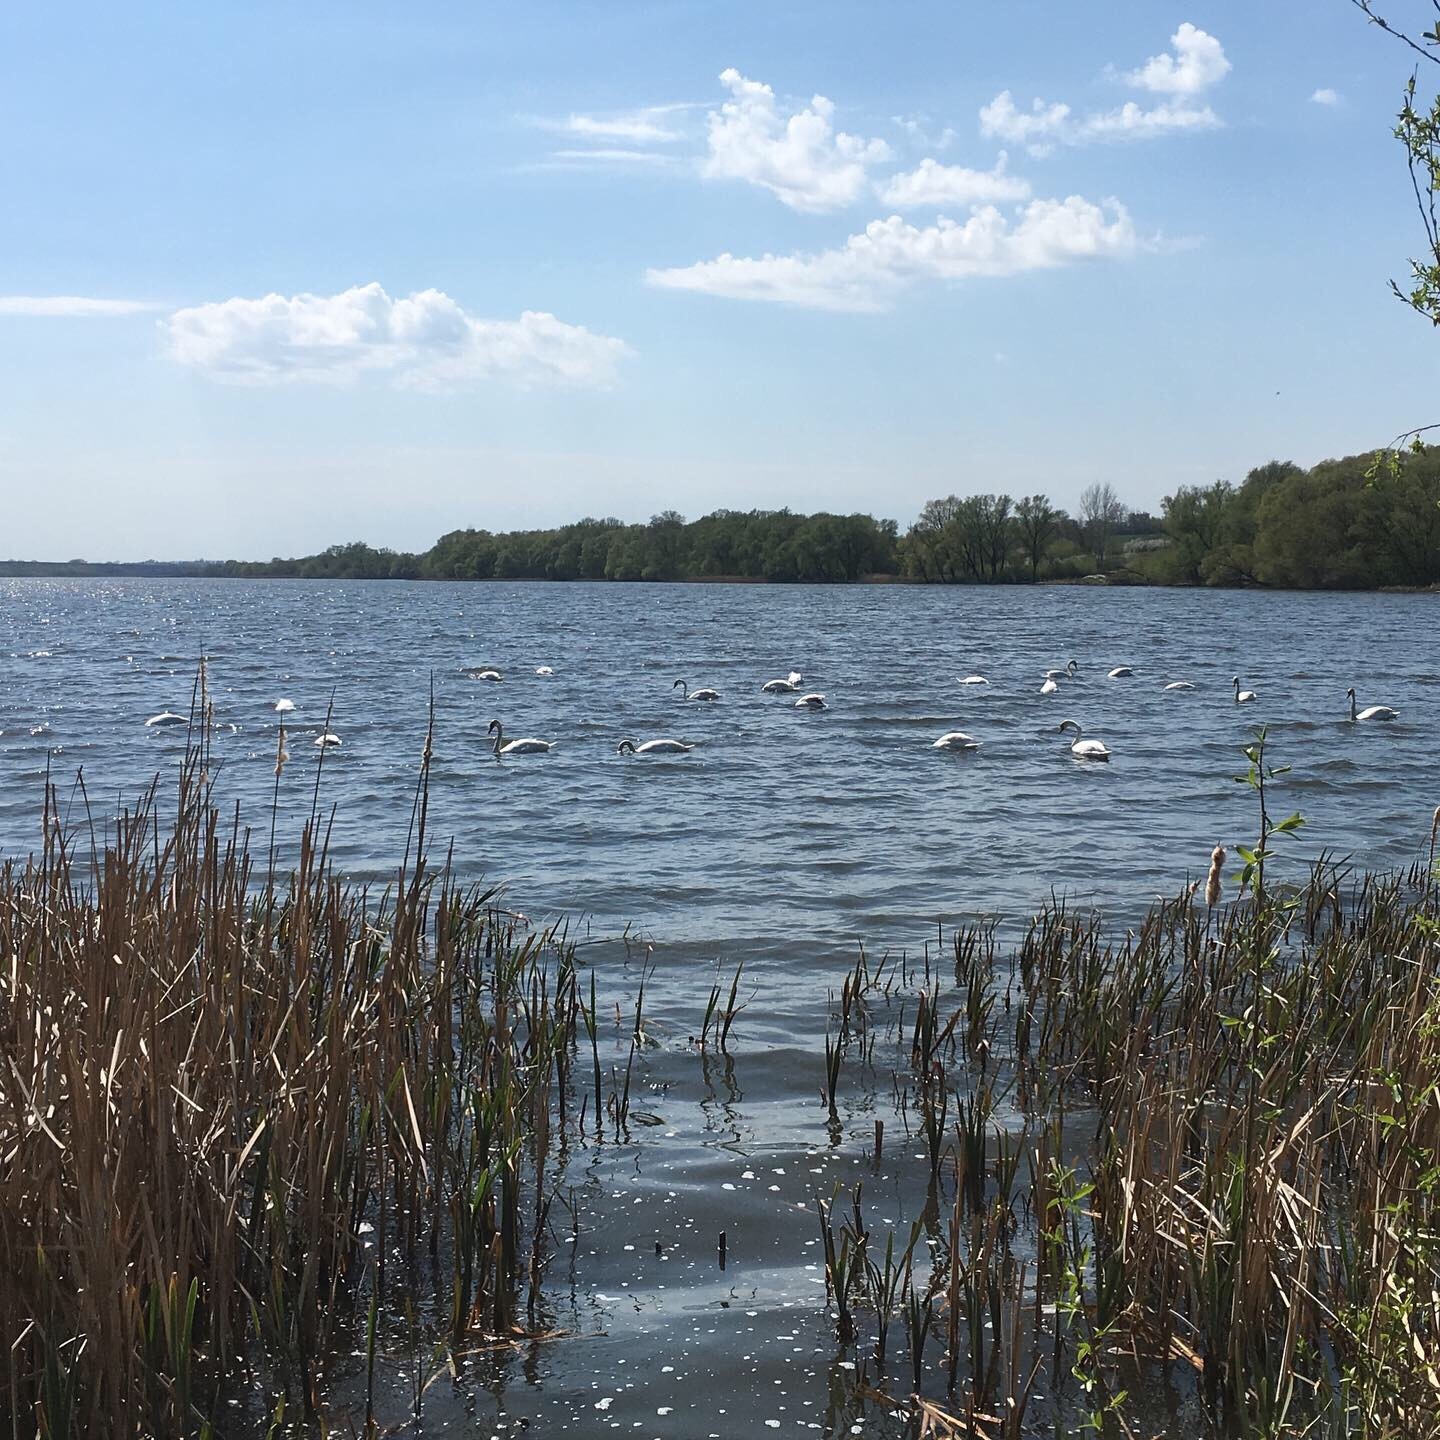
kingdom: Animalia
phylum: Chordata
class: Aves
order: Anseriformes
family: Anatidae
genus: Cygnus
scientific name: Cygnus olor
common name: Mute swan
